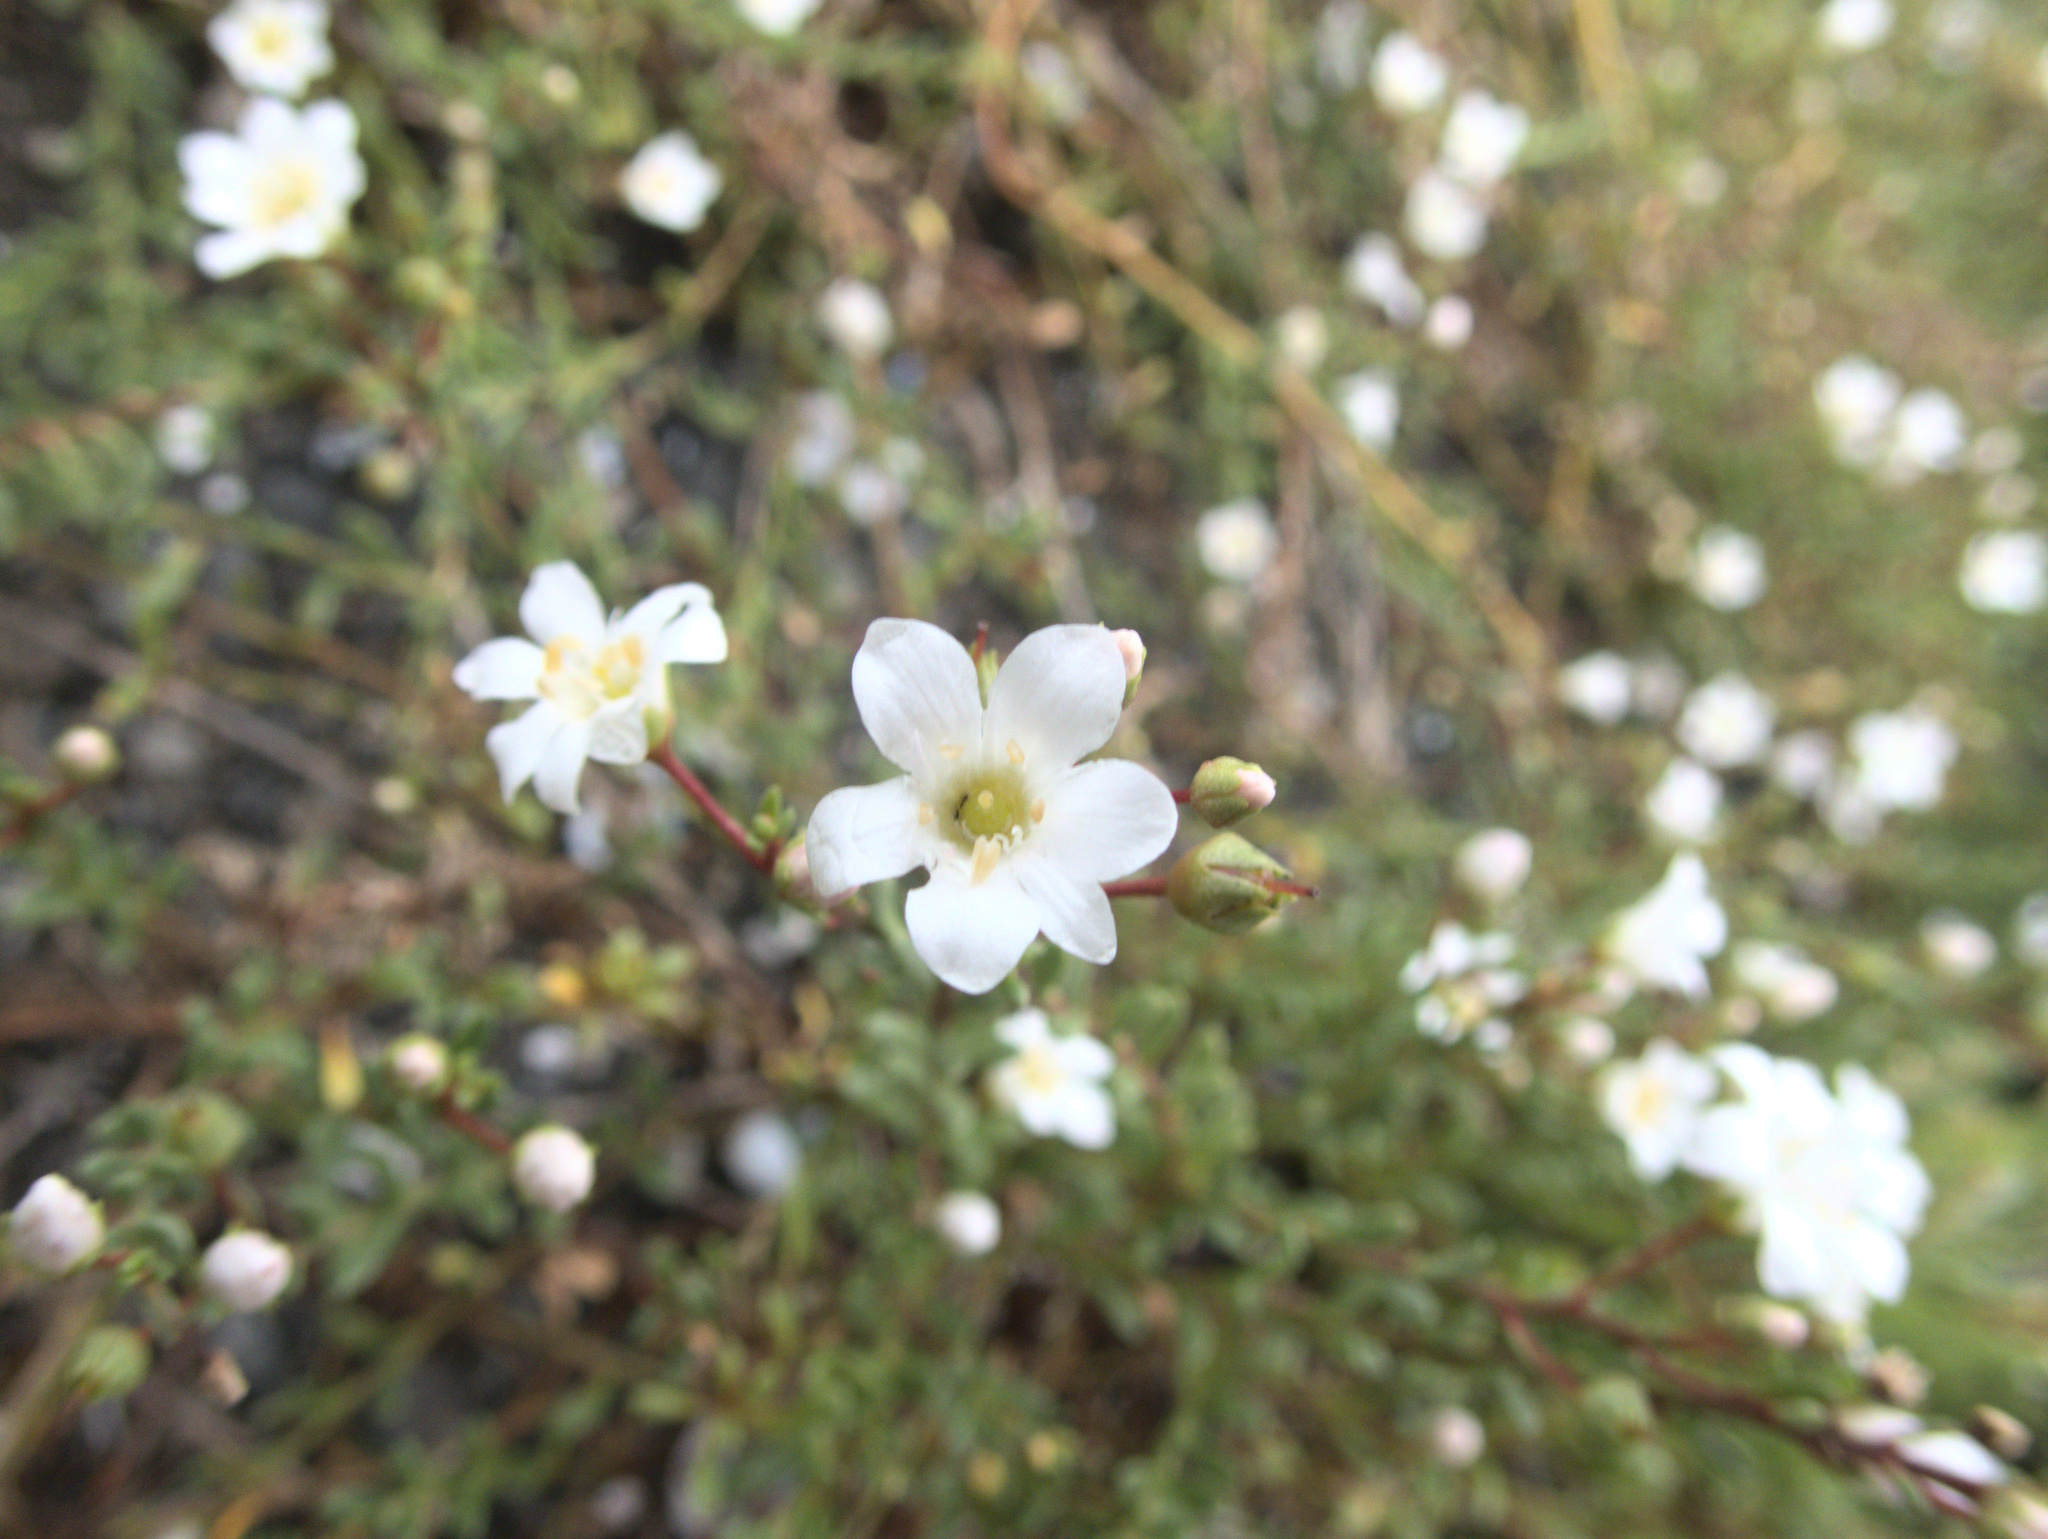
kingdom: Plantae
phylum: Tracheophyta
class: Magnoliopsida
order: Ericales
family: Primulaceae
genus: Samolus
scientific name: Samolus repens
